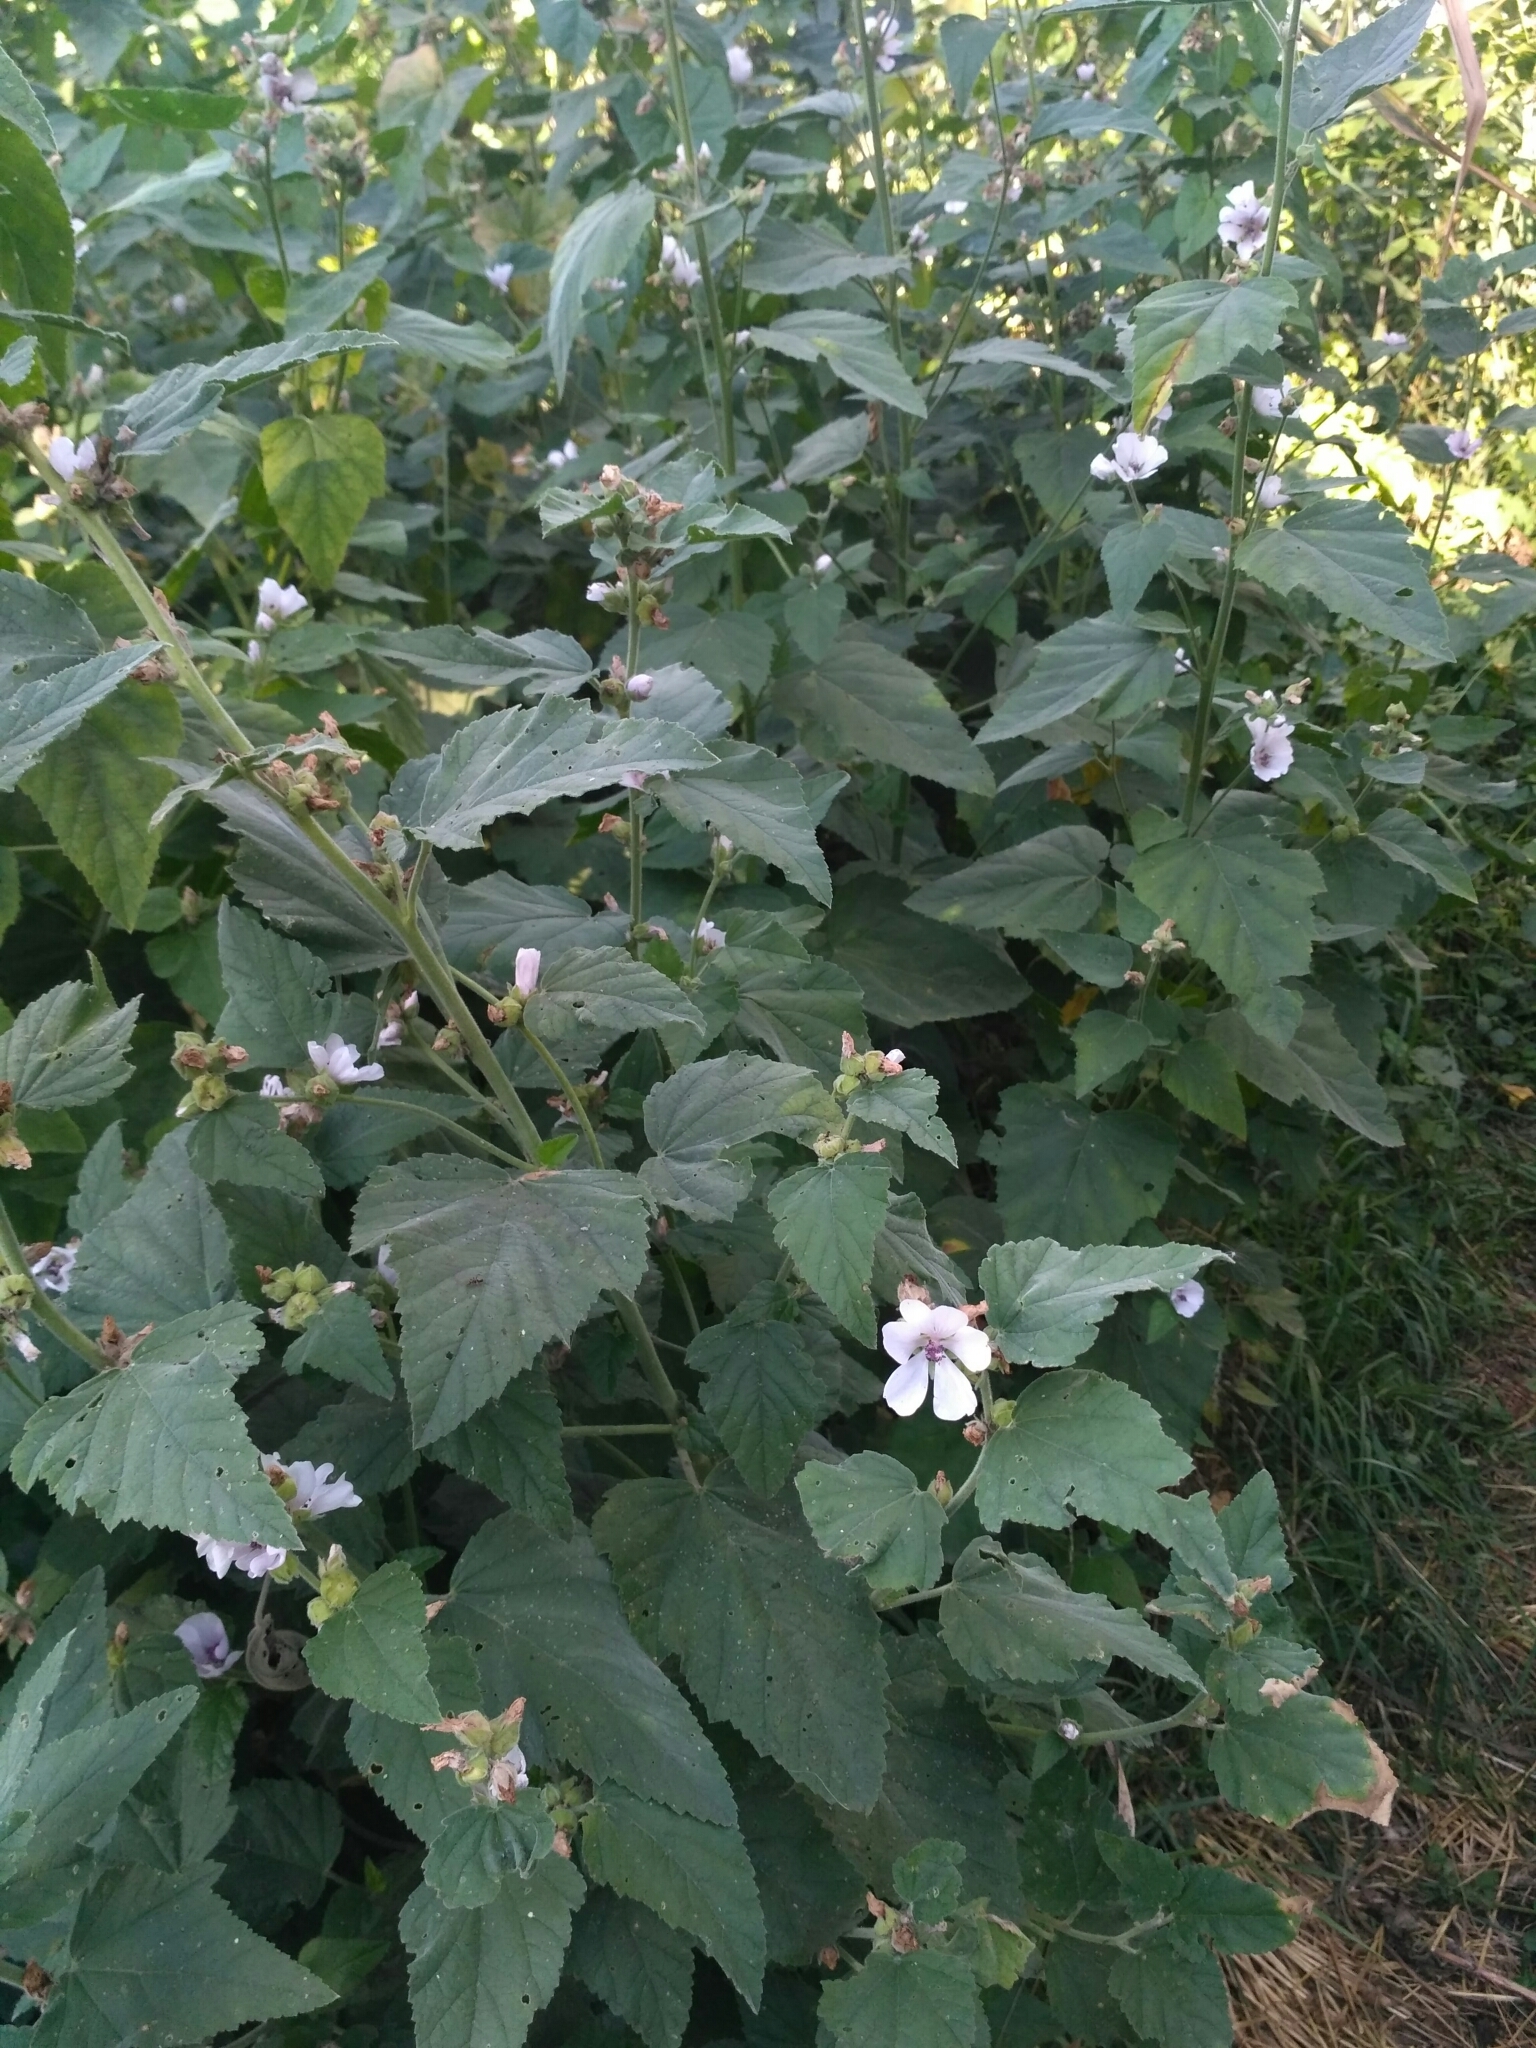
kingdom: Plantae
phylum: Tracheophyta
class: Magnoliopsida
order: Malvales
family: Malvaceae
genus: Althaea
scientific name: Althaea officinalis
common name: Marsh-mallow
